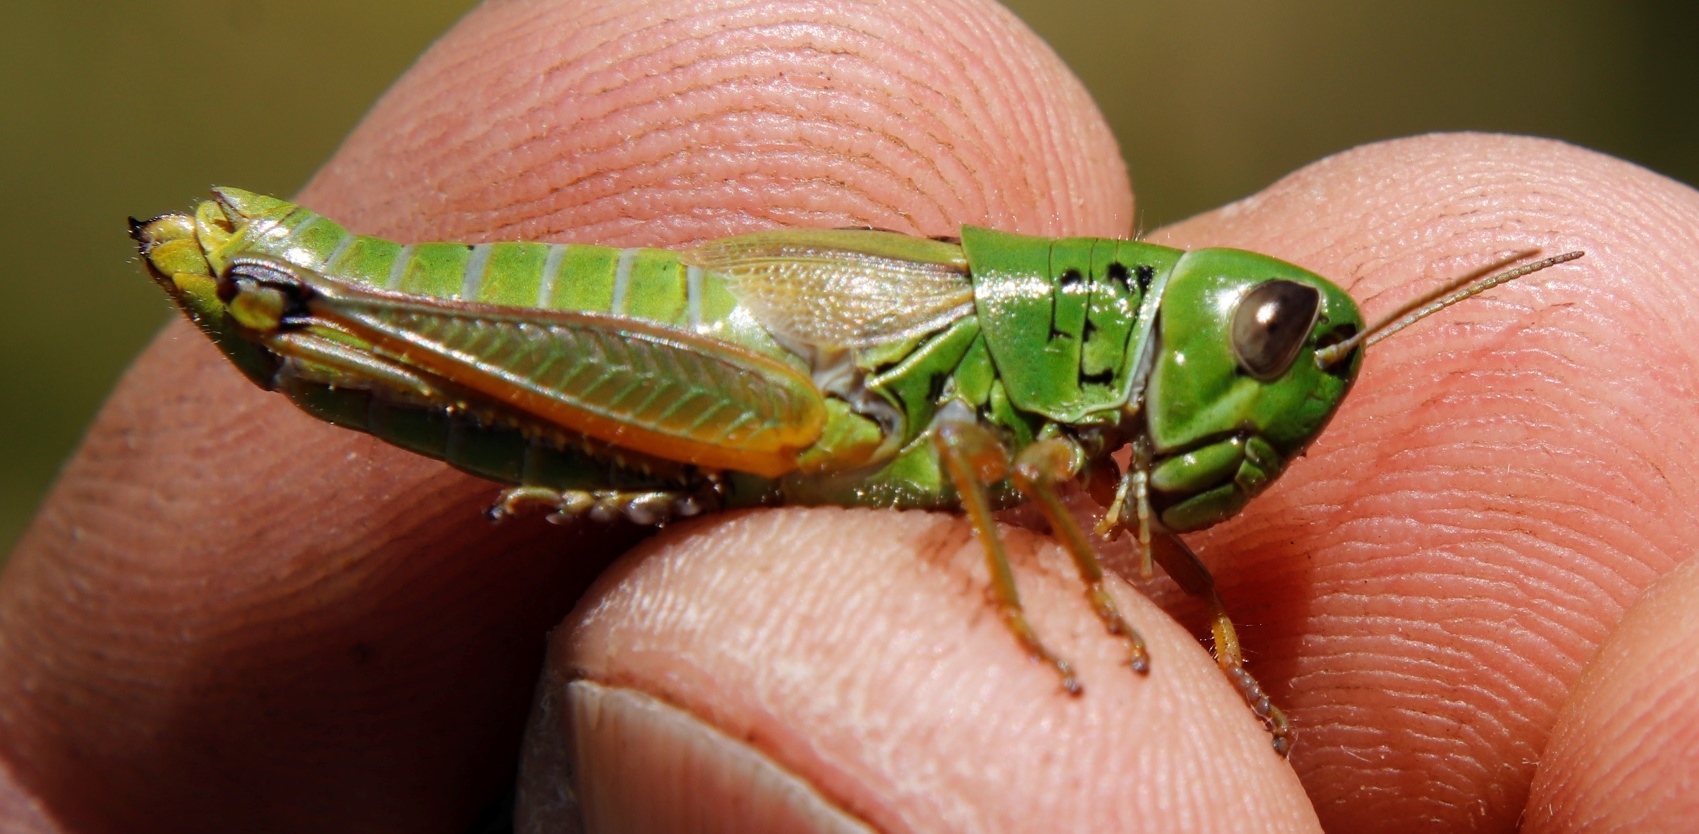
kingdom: Animalia
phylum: Arthropoda
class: Insecta
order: Orthoptera
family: Acrididae
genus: Dirshia
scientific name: Dirshia abbreviata
